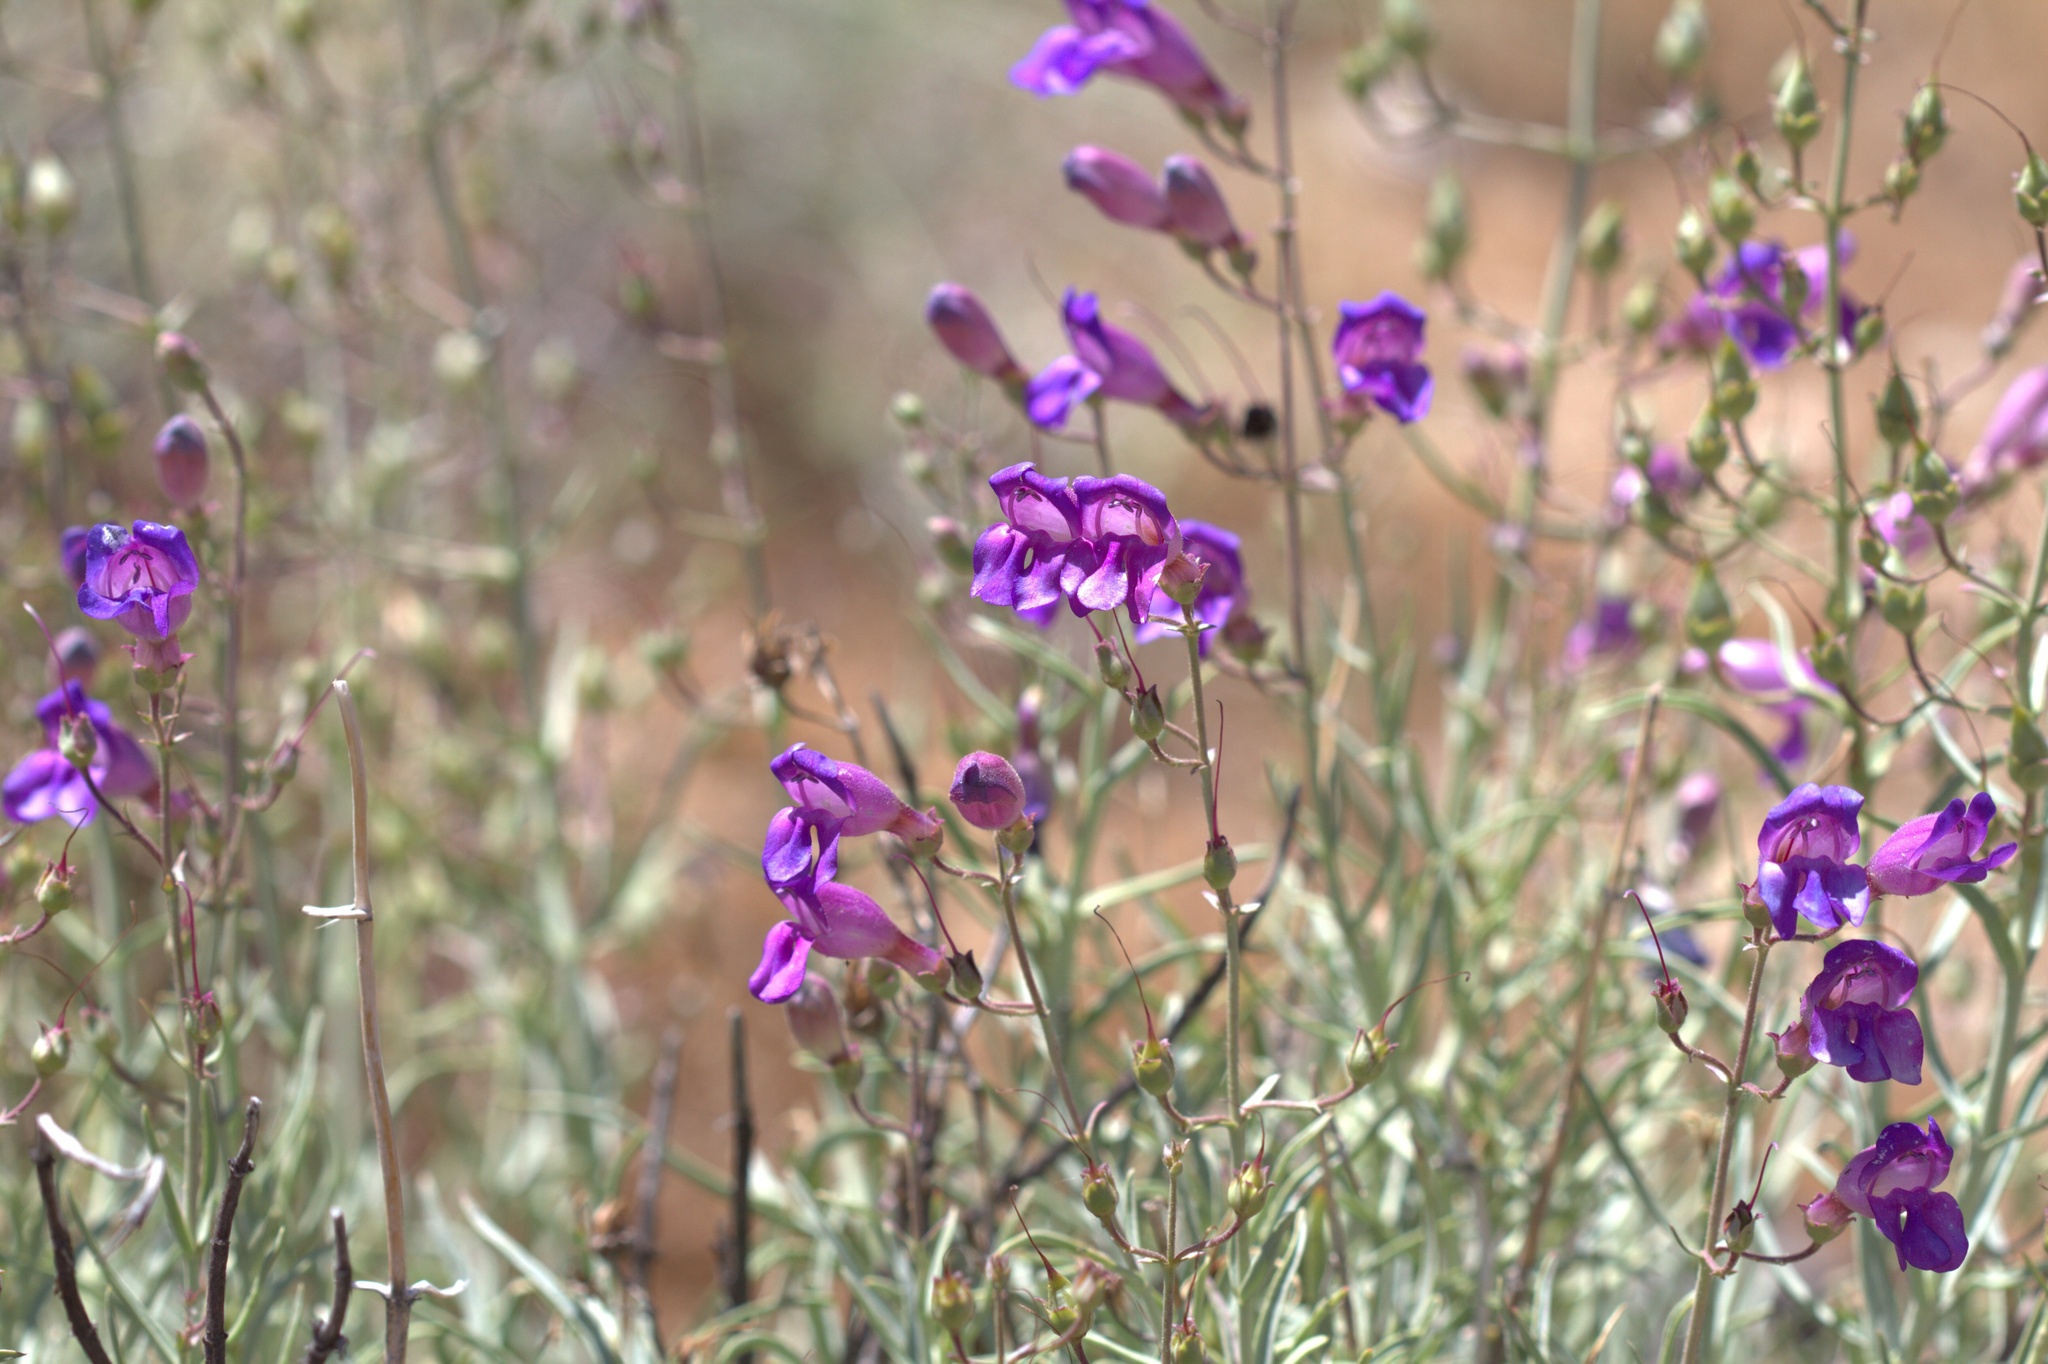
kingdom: Plantae
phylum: Tracheophyta
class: Magnoliopsida
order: Lamiales
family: Plantaginaceae
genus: Penstemon
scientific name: Penstemon incertus
